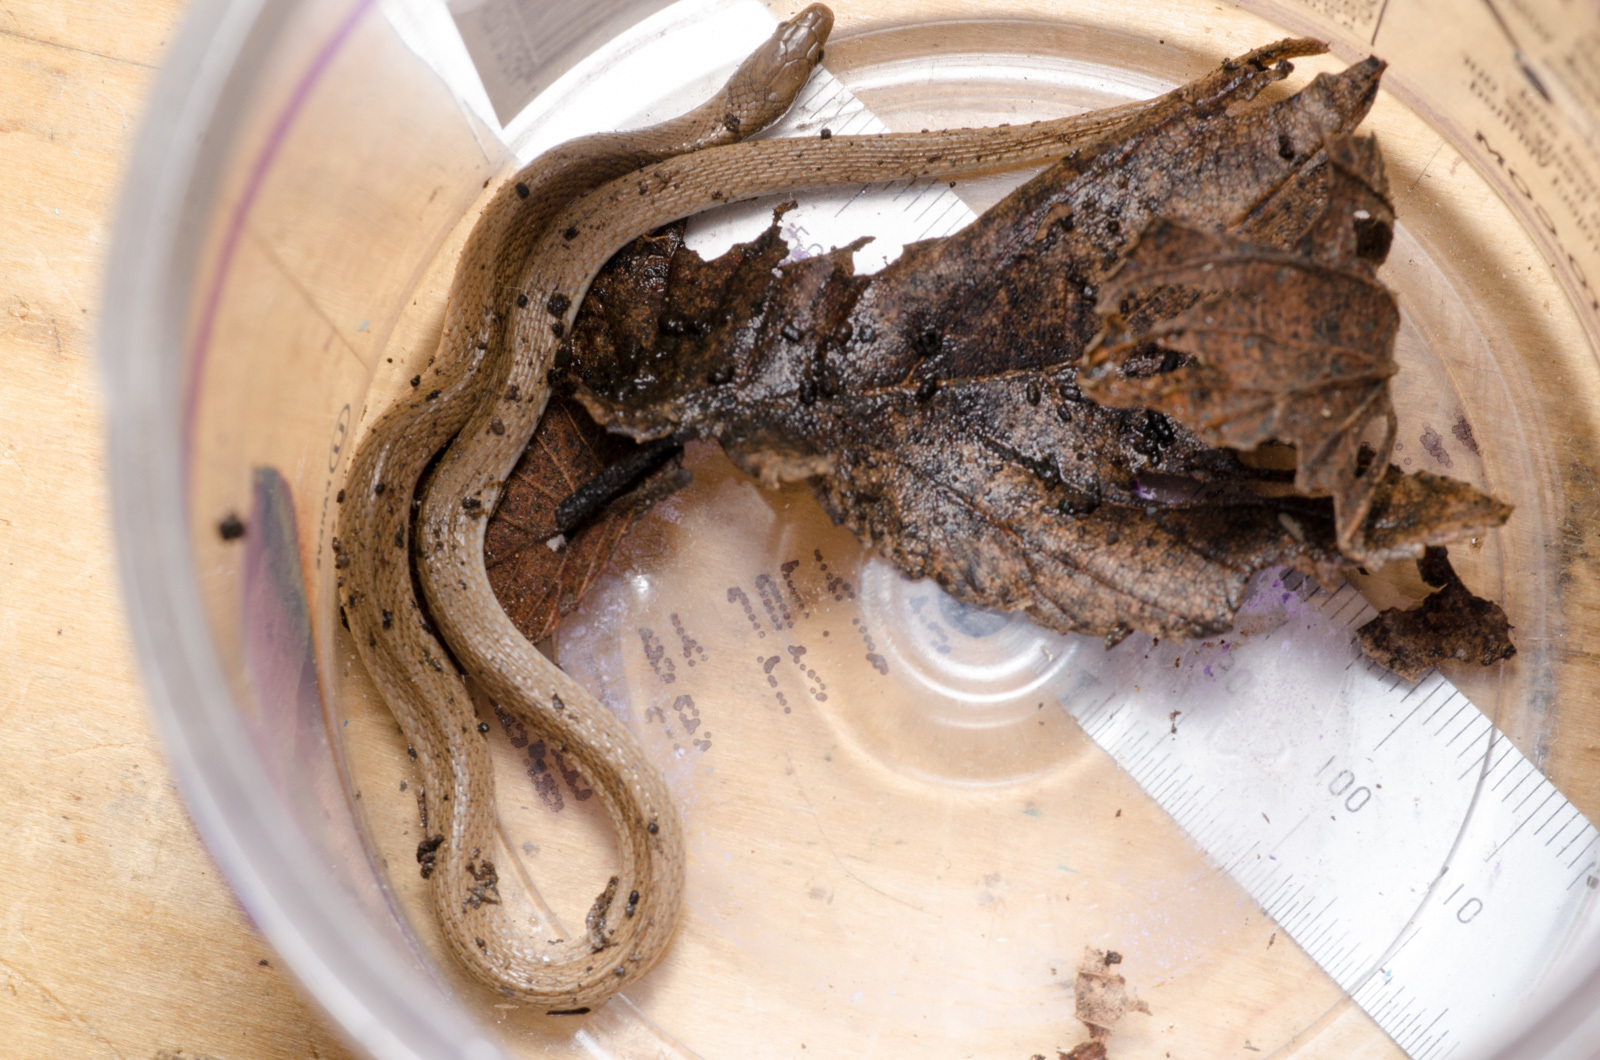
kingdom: Animalia
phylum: Chordata
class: Squamata
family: Colubridae
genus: Haldea
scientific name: Haldea striatula
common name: Rough earth snake
